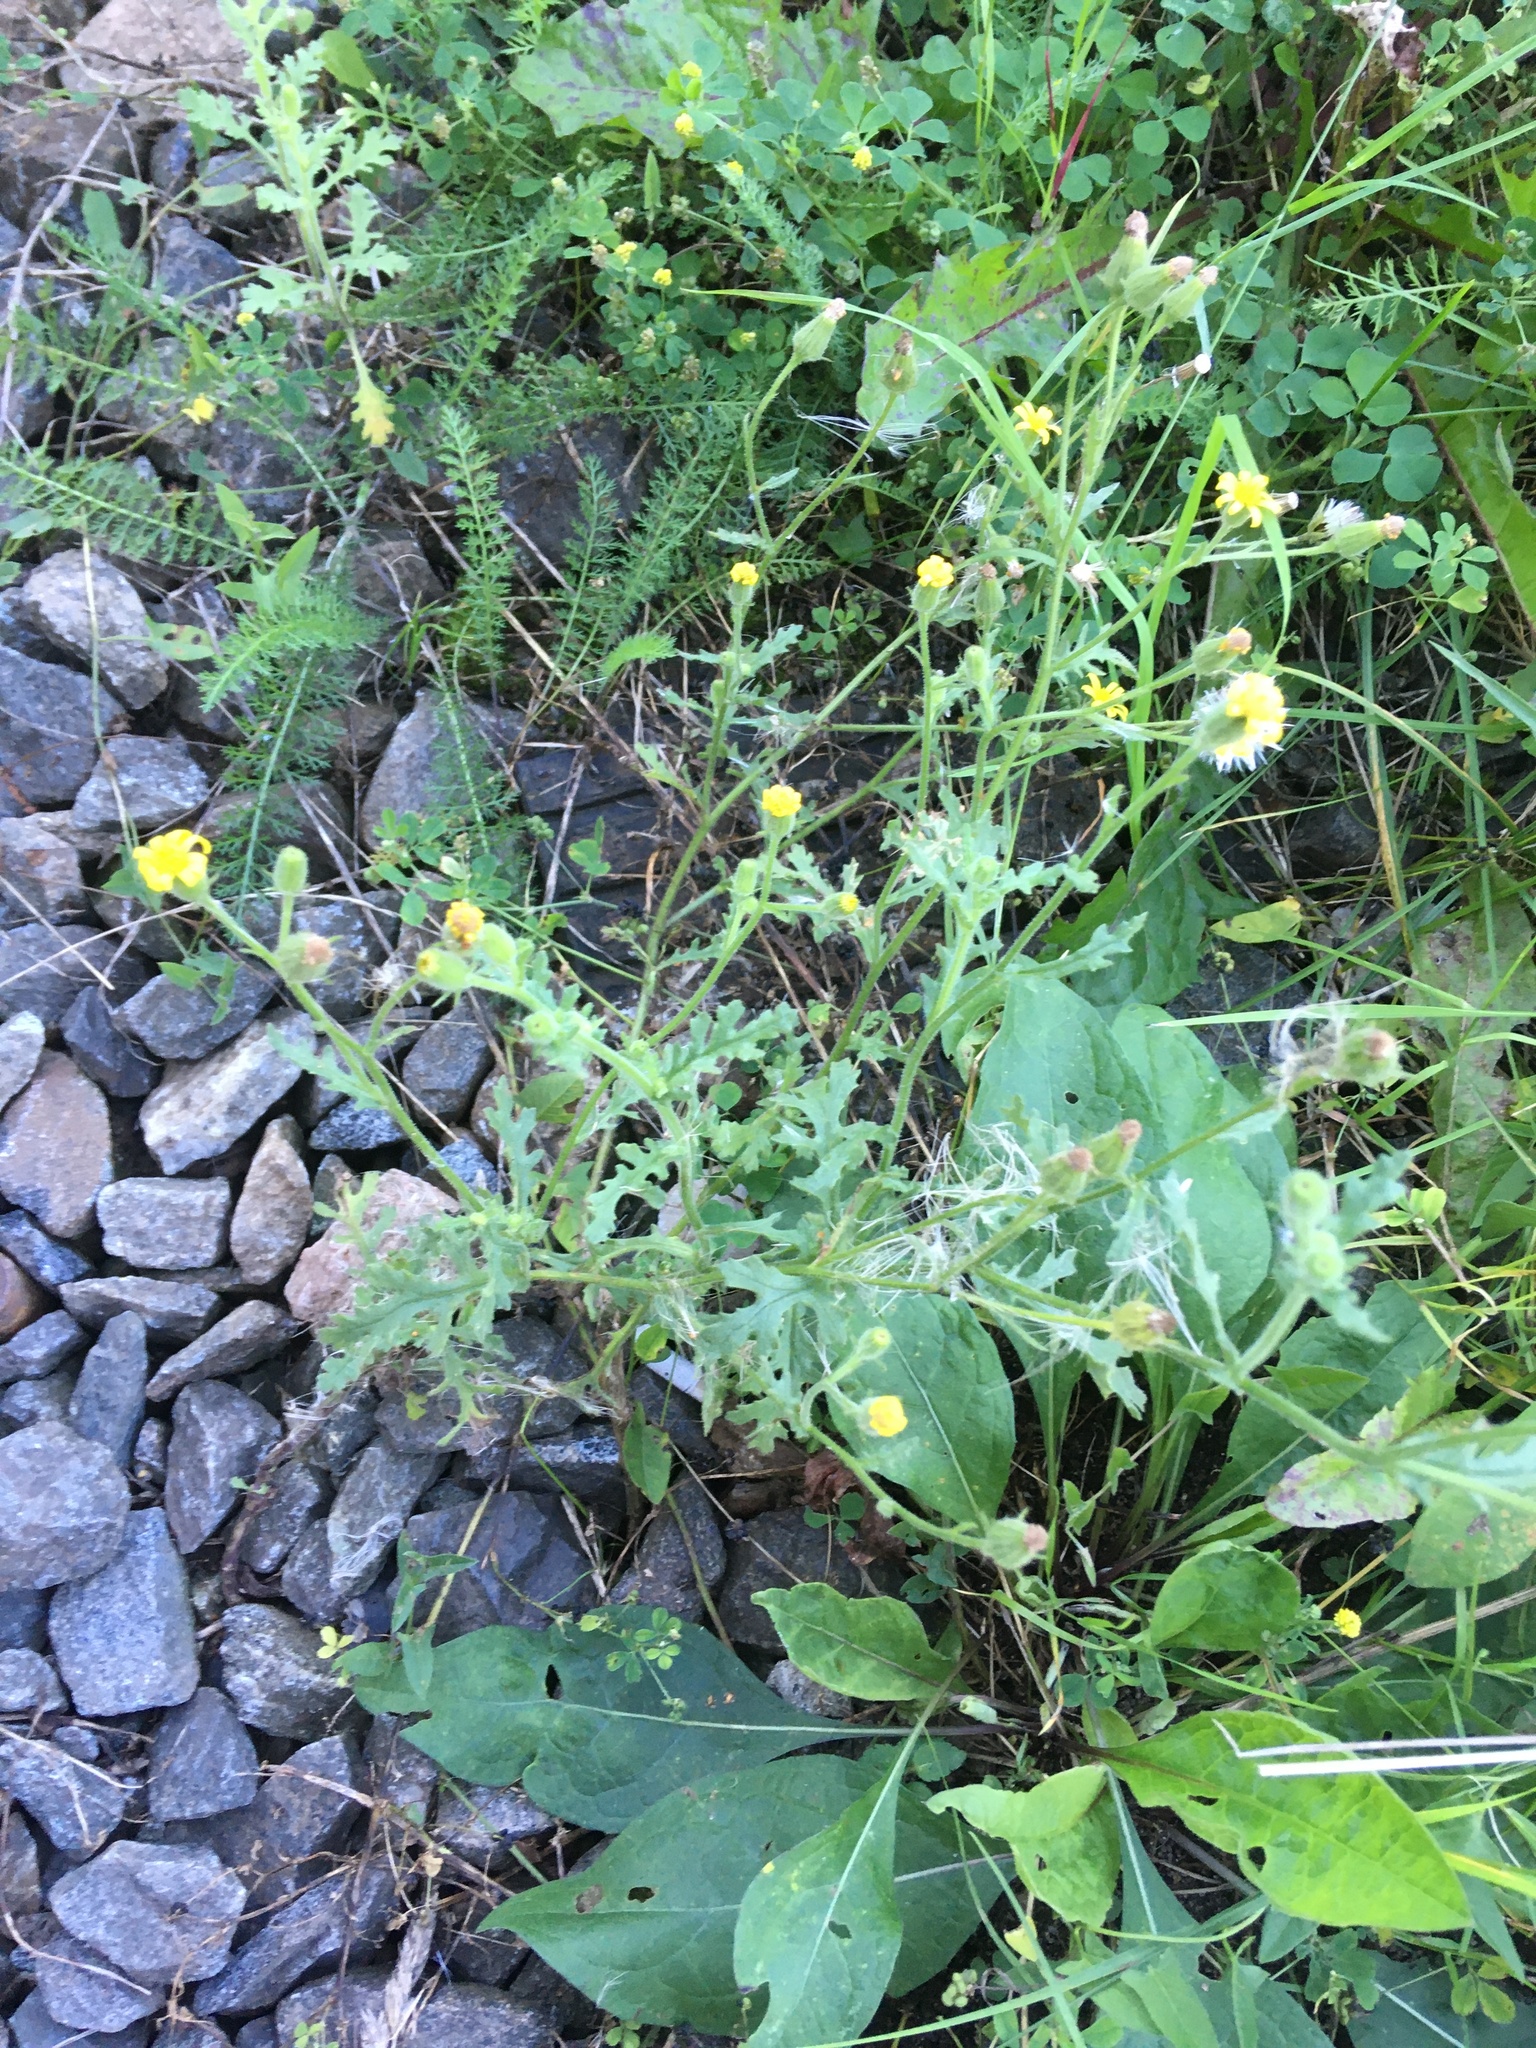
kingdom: Plantae
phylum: Tracheophyta
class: Magnoliopsida
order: Asterales
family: Asteraceae
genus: Senecio
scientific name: Senecio viscosus
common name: Sticky groundsel
